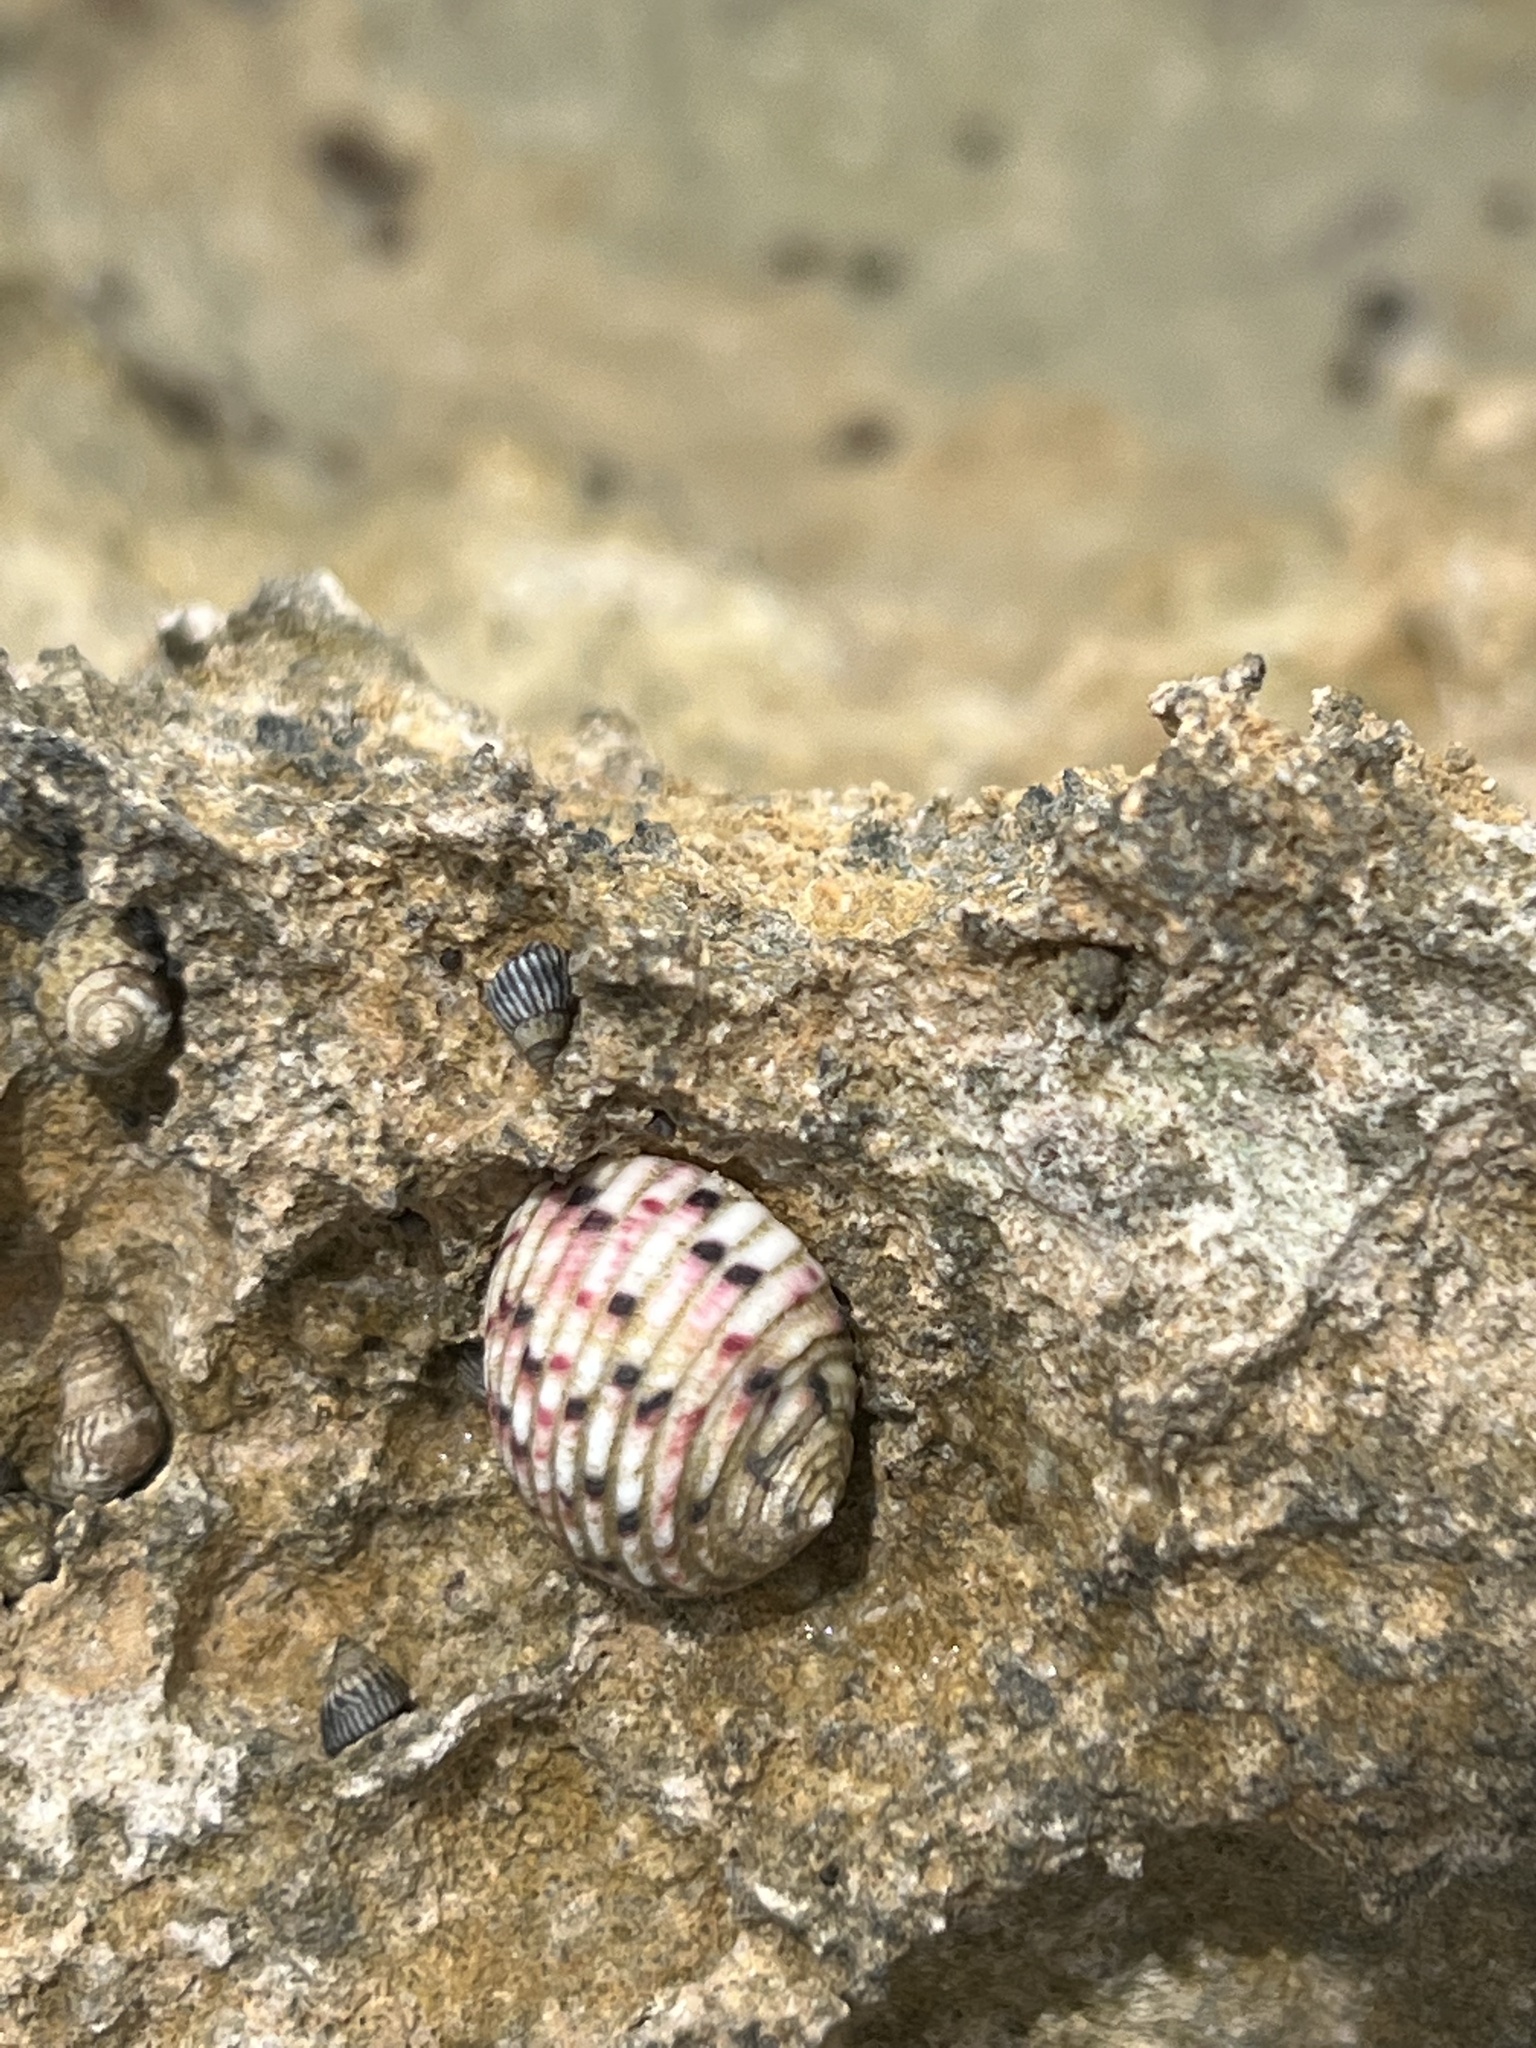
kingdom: Animalia
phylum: Mollusca
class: Gastropoda
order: Cycloneritida
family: Neritidae
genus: Nerita
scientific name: Nerita versicolor
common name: Four-tooth nerite
